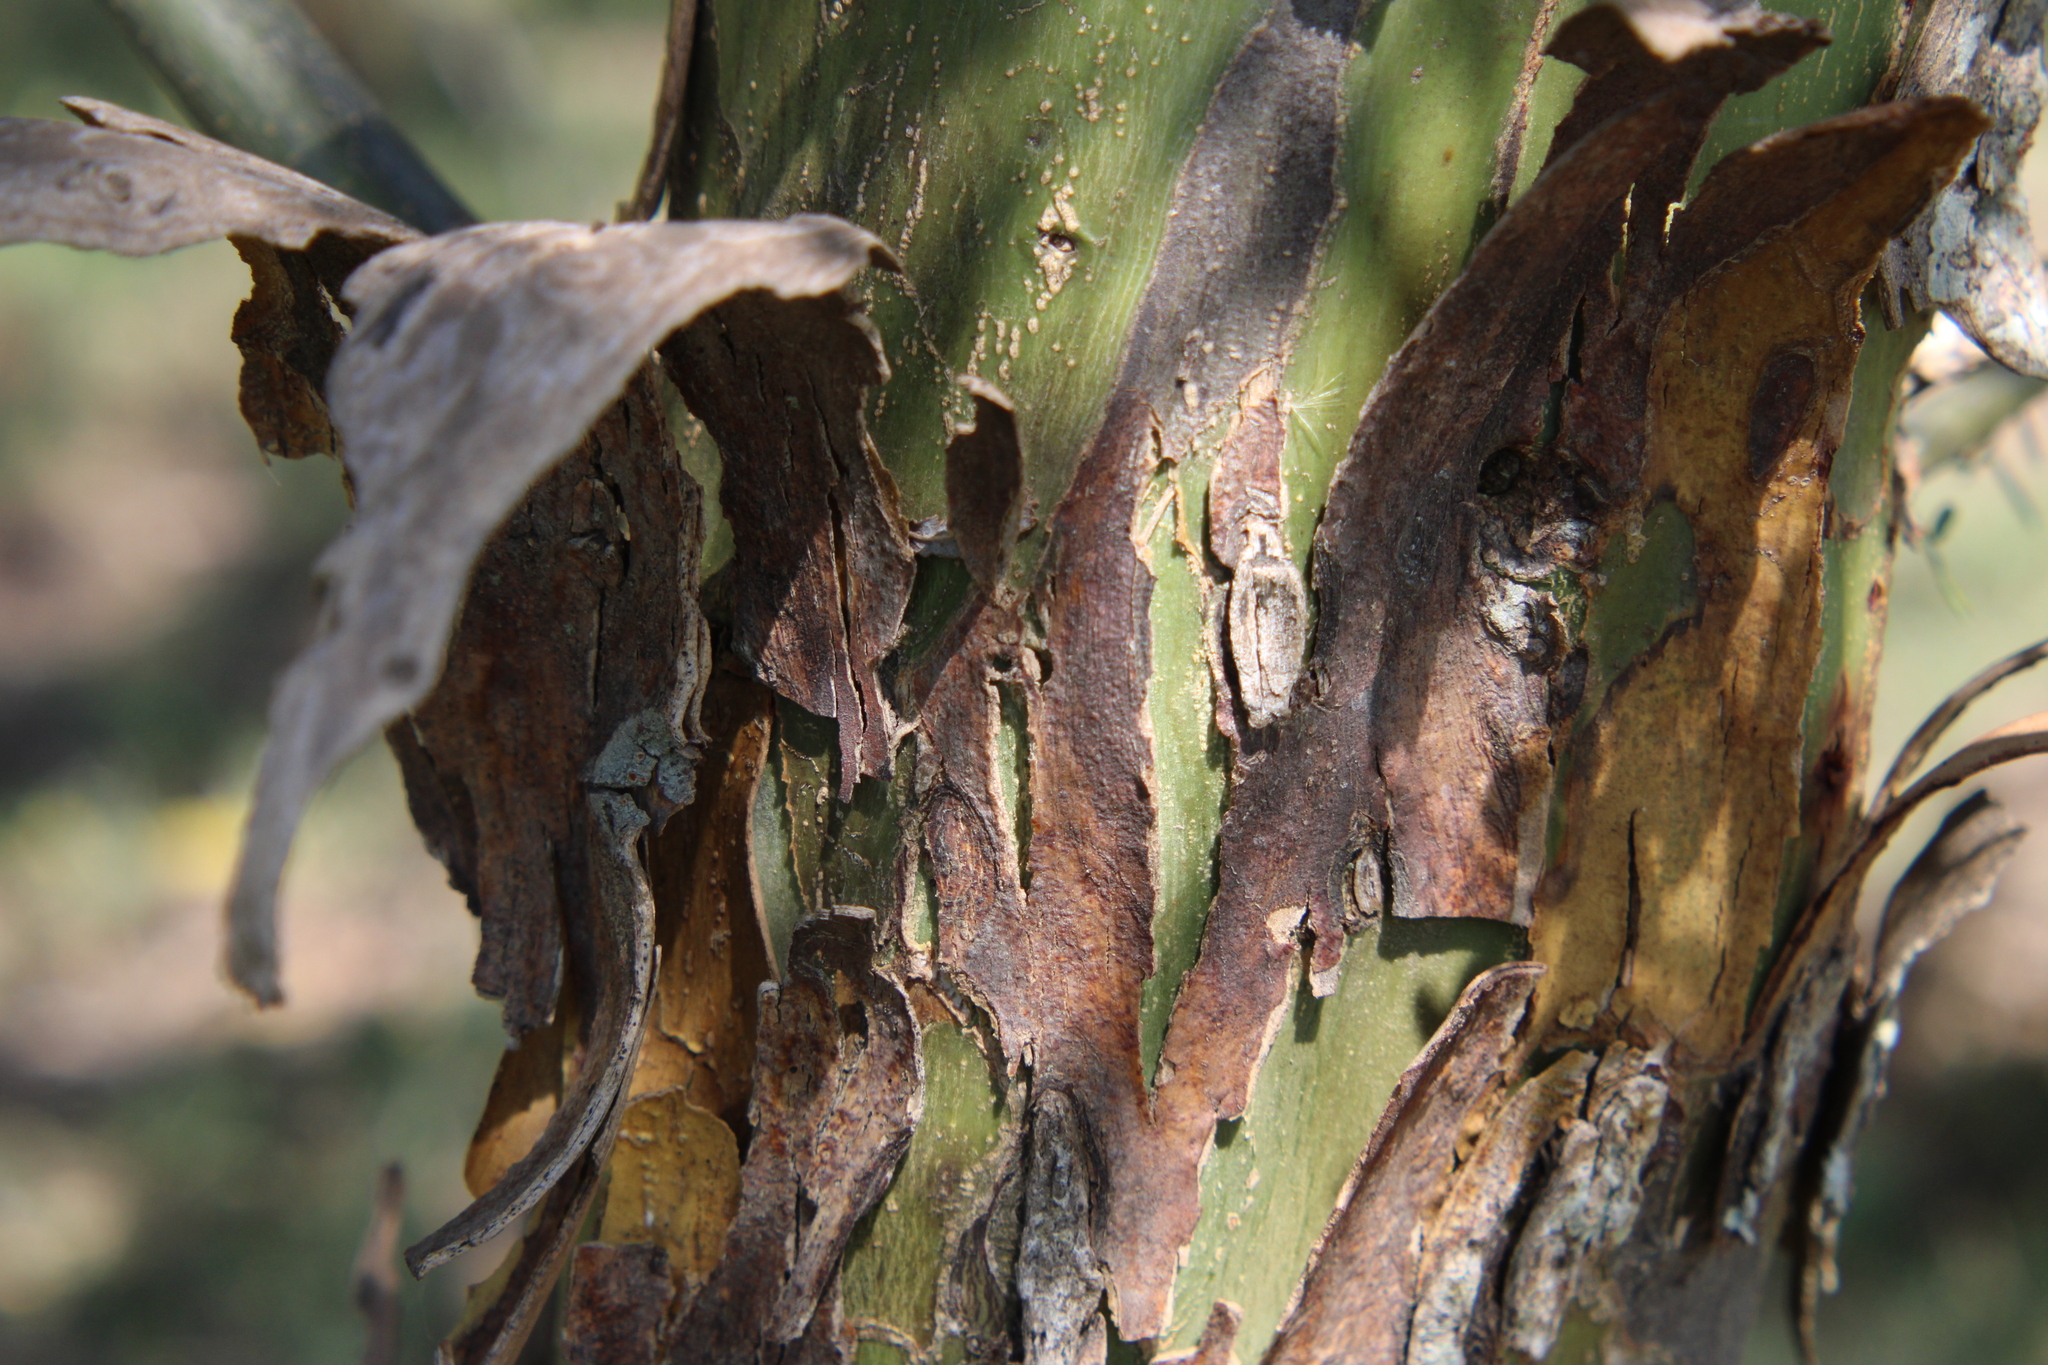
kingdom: Plantae
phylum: Tracheophyta
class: Magnoliopsida
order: Fabales
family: Fabaceae
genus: Geoffroea
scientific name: Geoffroea decorticans
